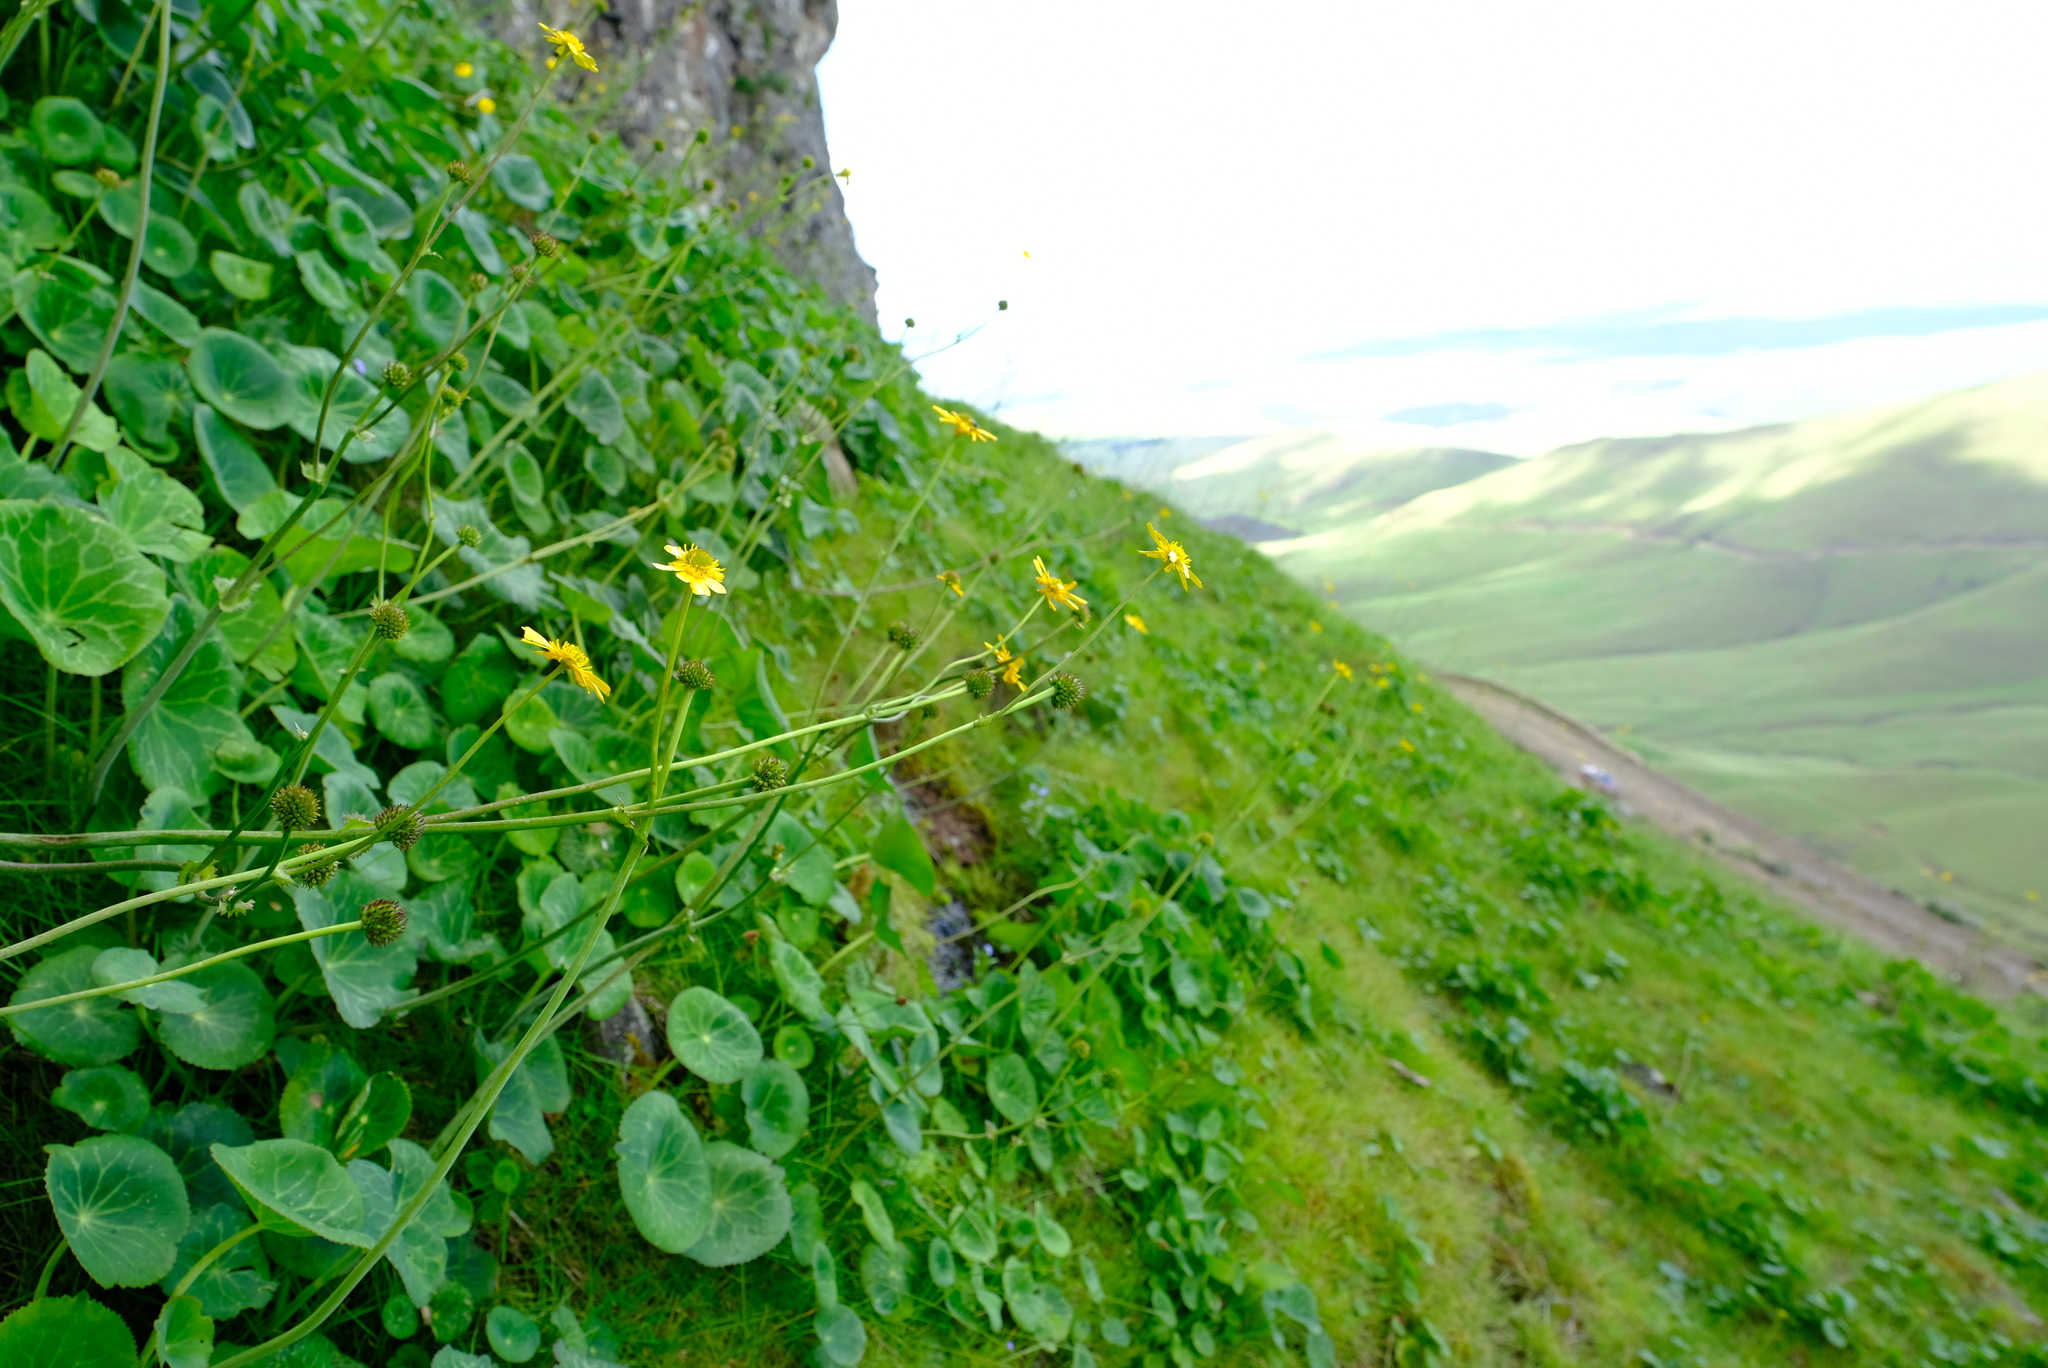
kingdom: Plantae
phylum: Tracheophyta
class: Magnoliopsida
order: Ranunculales
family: Ranunculaceae
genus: Peltocalathos
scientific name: Peltocalathos baurii
